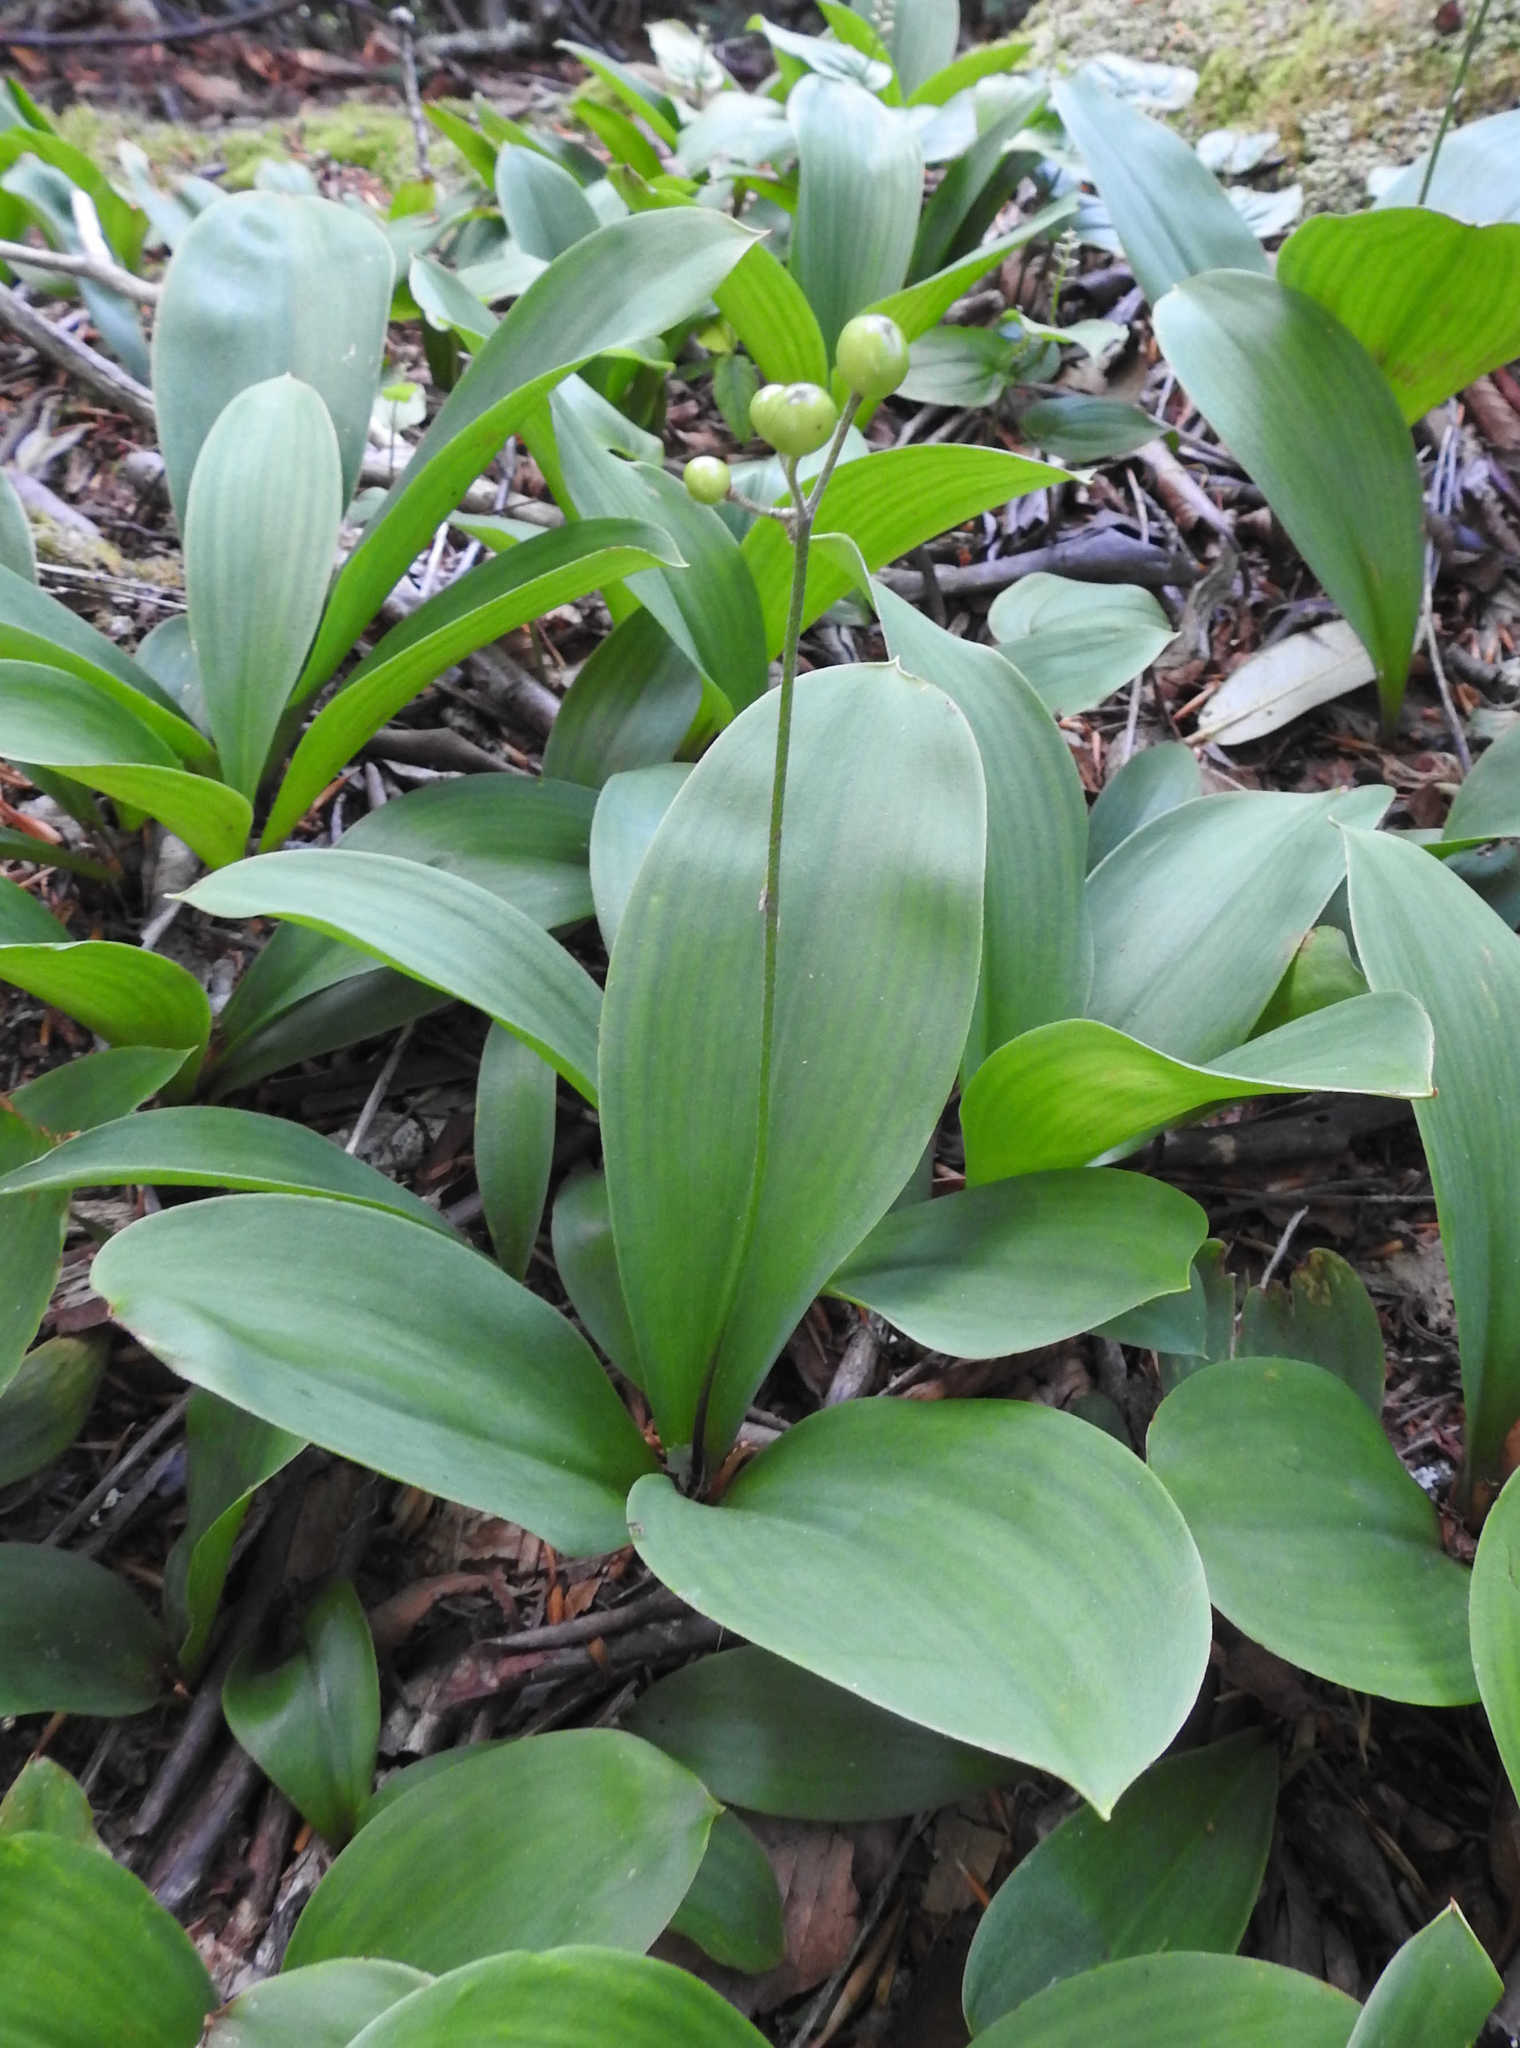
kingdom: Plantae
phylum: Tracheophyta
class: Liliopsida
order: Liliales
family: Liliaceae
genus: Clintonia
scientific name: Clintonia borealis
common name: Yellow clintonia
